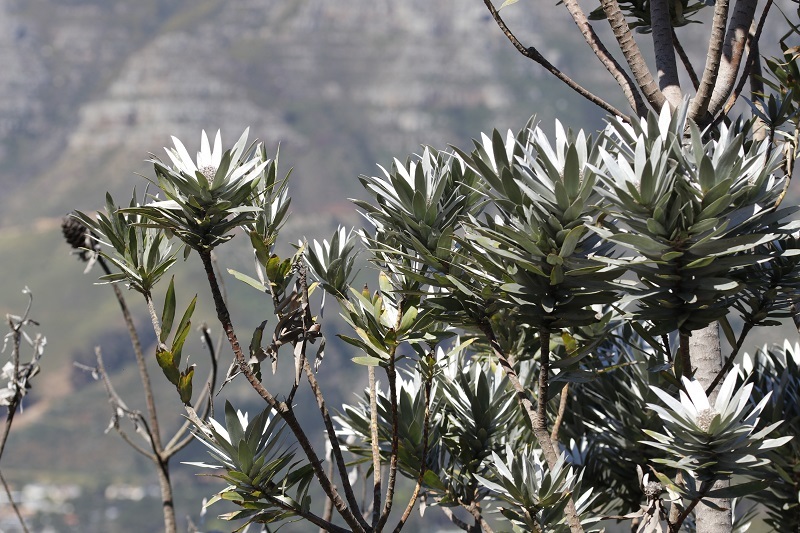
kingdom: Plantae
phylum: Tracheophyta
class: Magnoliopsida
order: Proteales
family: Proteaceae
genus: Leucadendron
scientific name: Leucadendron argenteum
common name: Cape silver tree
